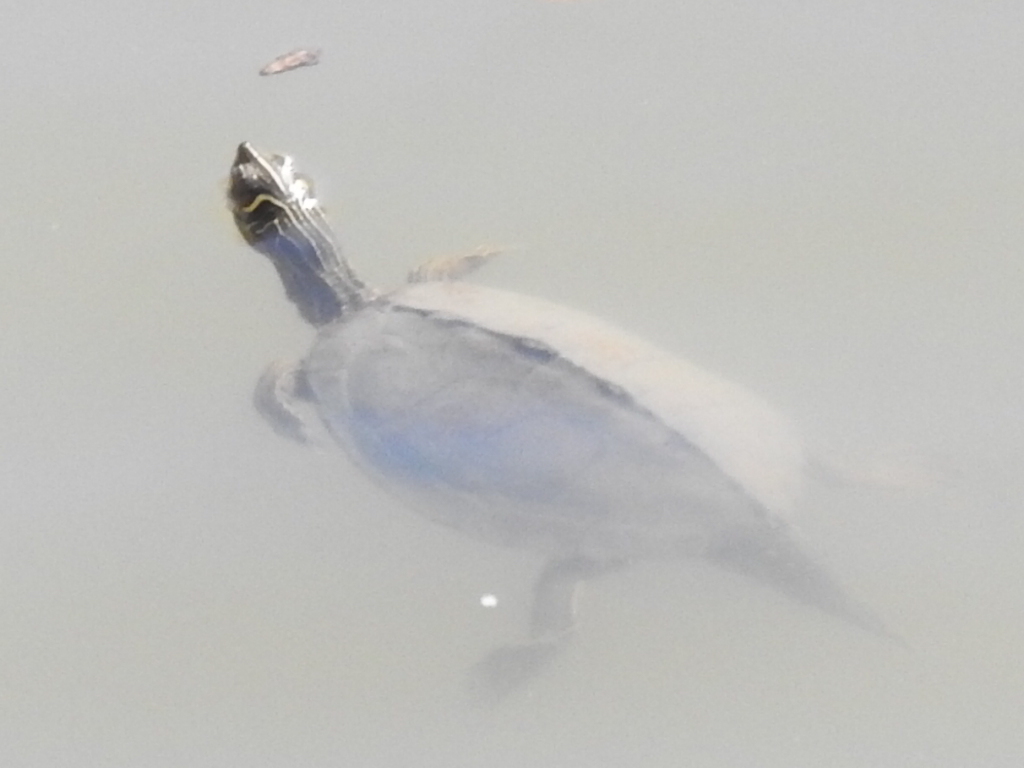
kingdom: Animalia
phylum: Chordata
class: Testudines
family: Emydidae
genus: Graptemys
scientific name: Graptemys pseudogeographica
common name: False map turtle
